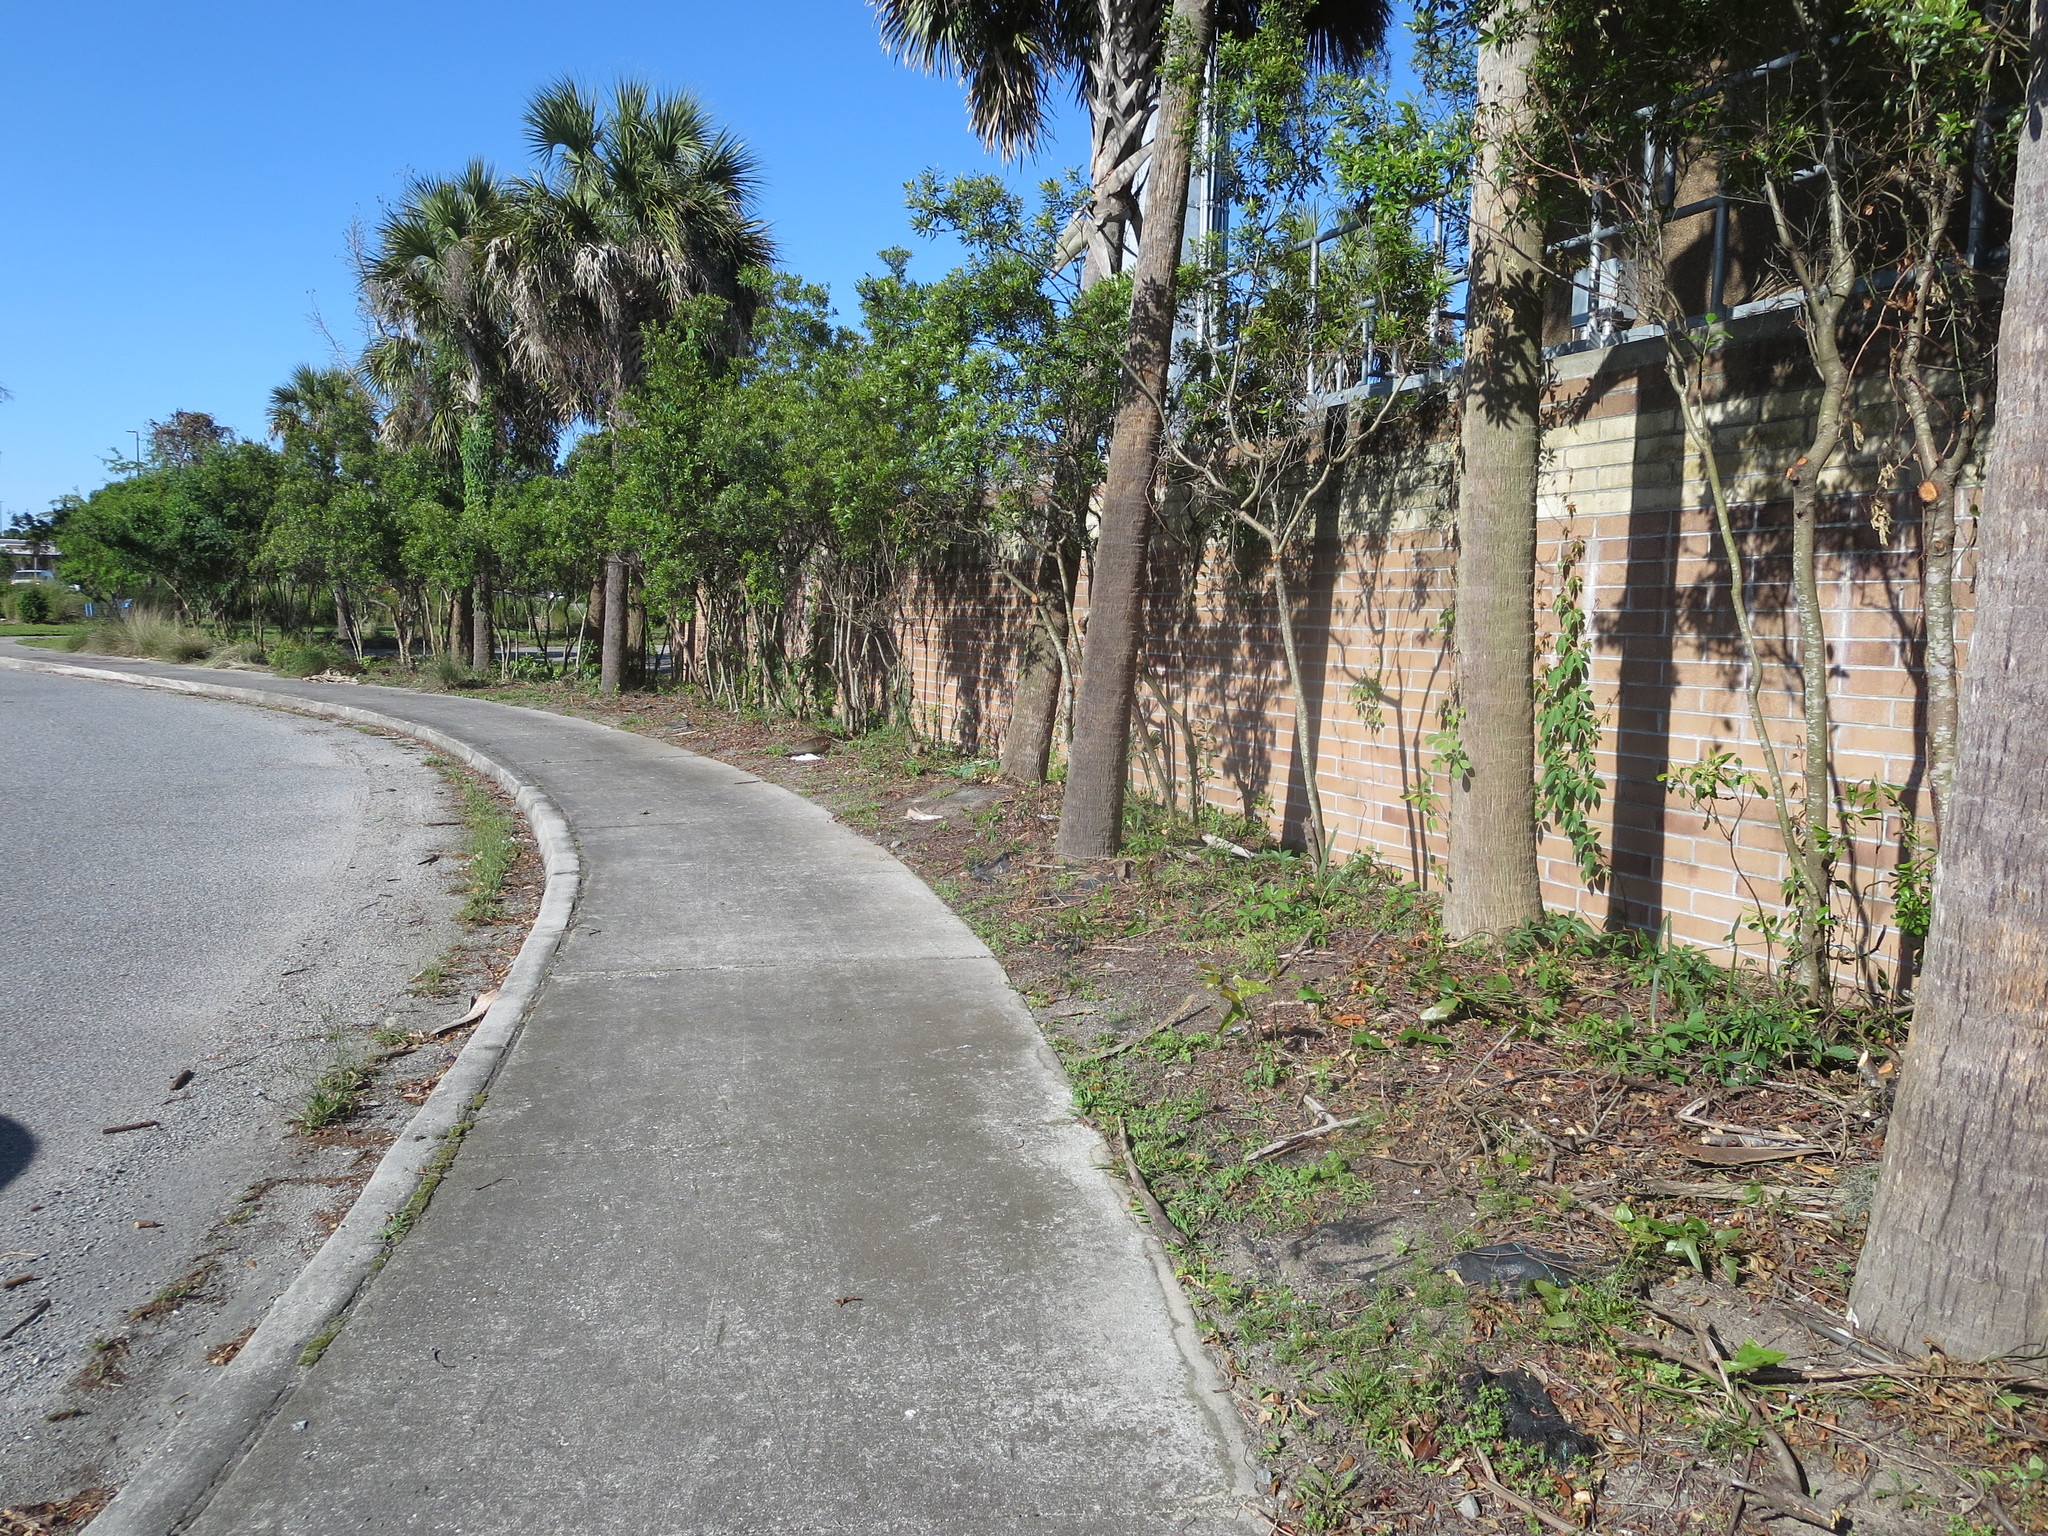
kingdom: Plantae
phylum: Tracheophyta
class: Liliopsida
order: Arecales
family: Arecaceae
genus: Sabal
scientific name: Sabal palmetto
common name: Blue palmetto
